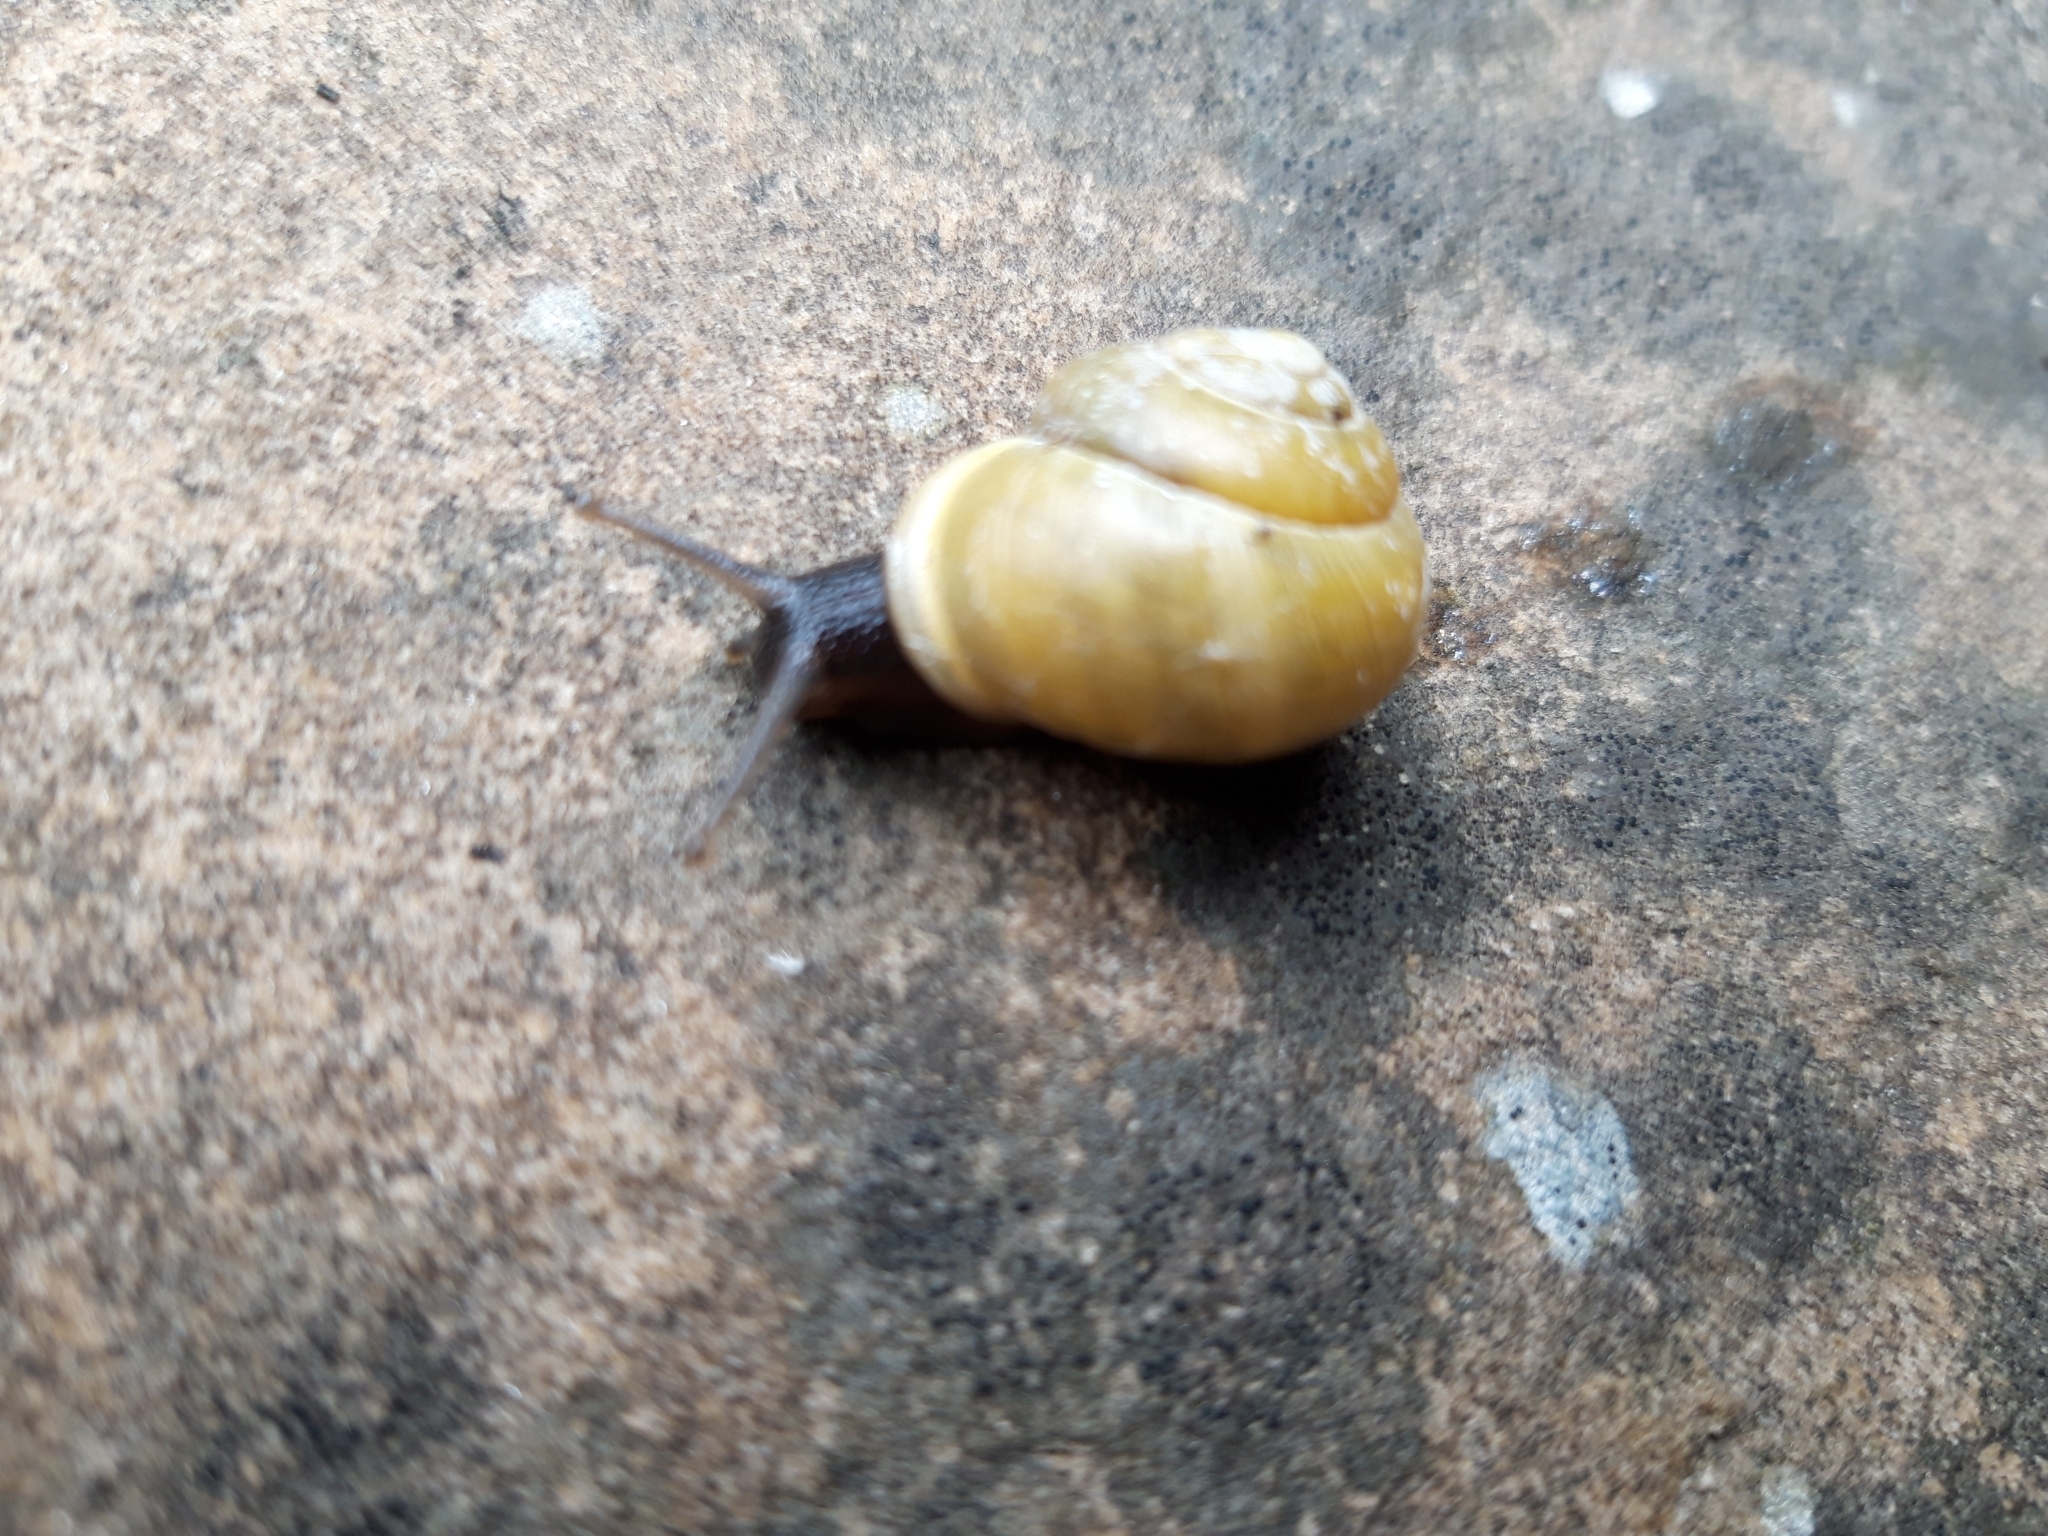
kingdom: Animalia
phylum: Mollusca
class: Gastropoda
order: Stylommatophora
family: Helicidae
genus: Cepaea
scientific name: Cepaea hortensis
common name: White-lip gardensnail
